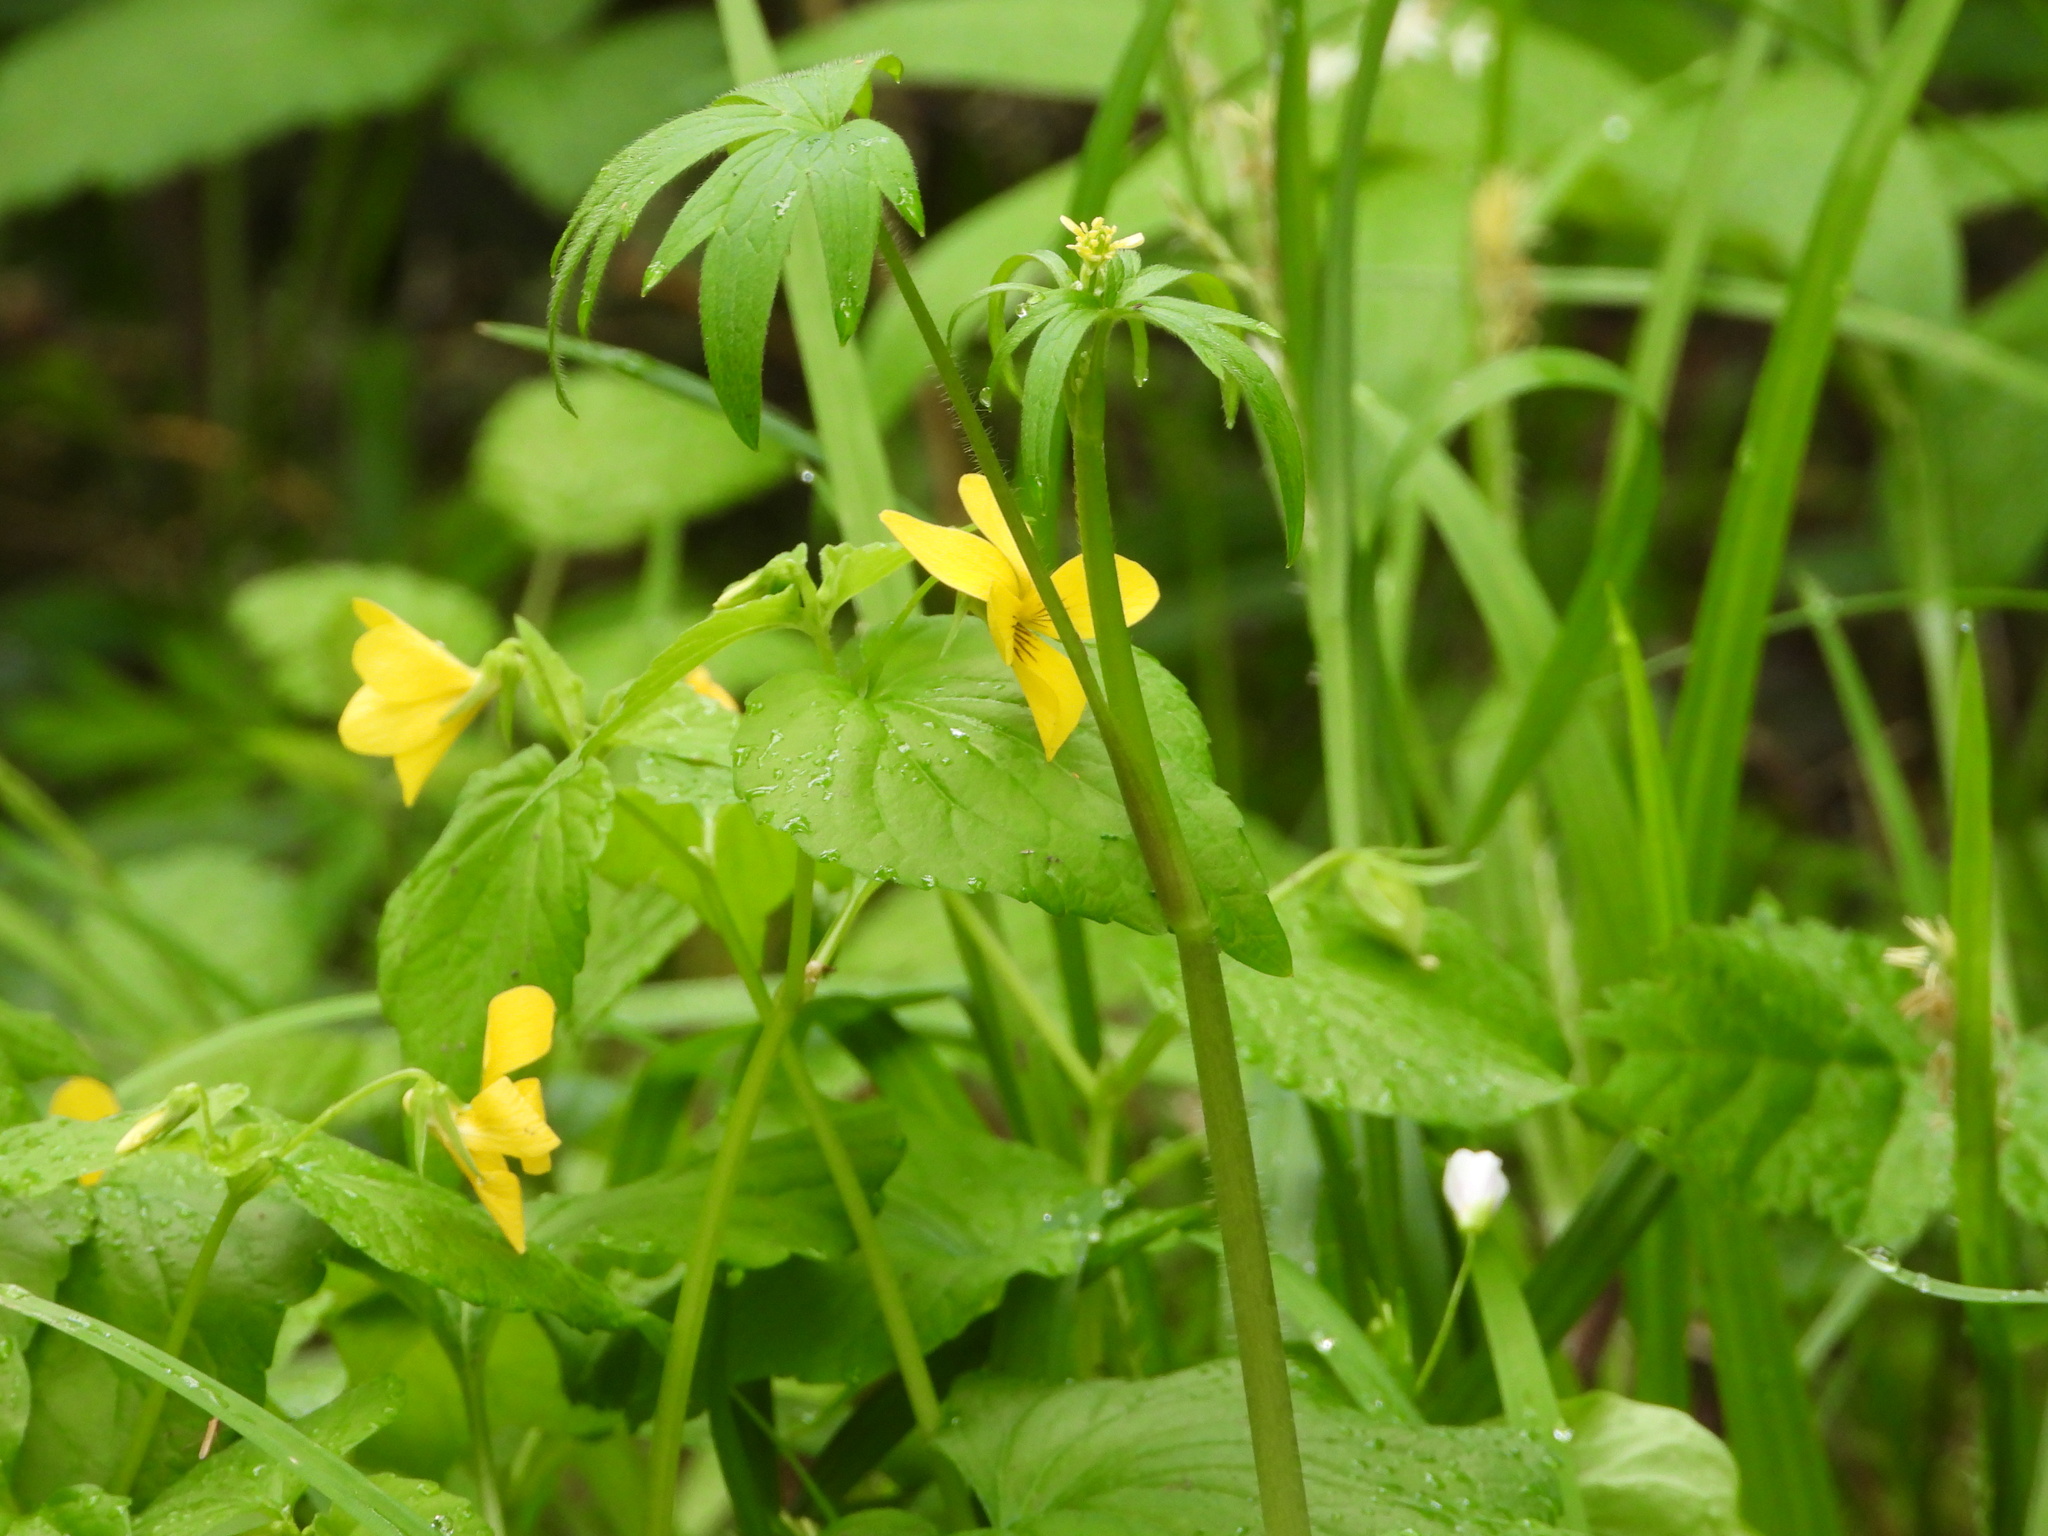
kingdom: Plantae
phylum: Tracheophyta
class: Magnoliopsida
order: Malpighiales
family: Violaceae
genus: Viola
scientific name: Viola glabella
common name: Stream violet
